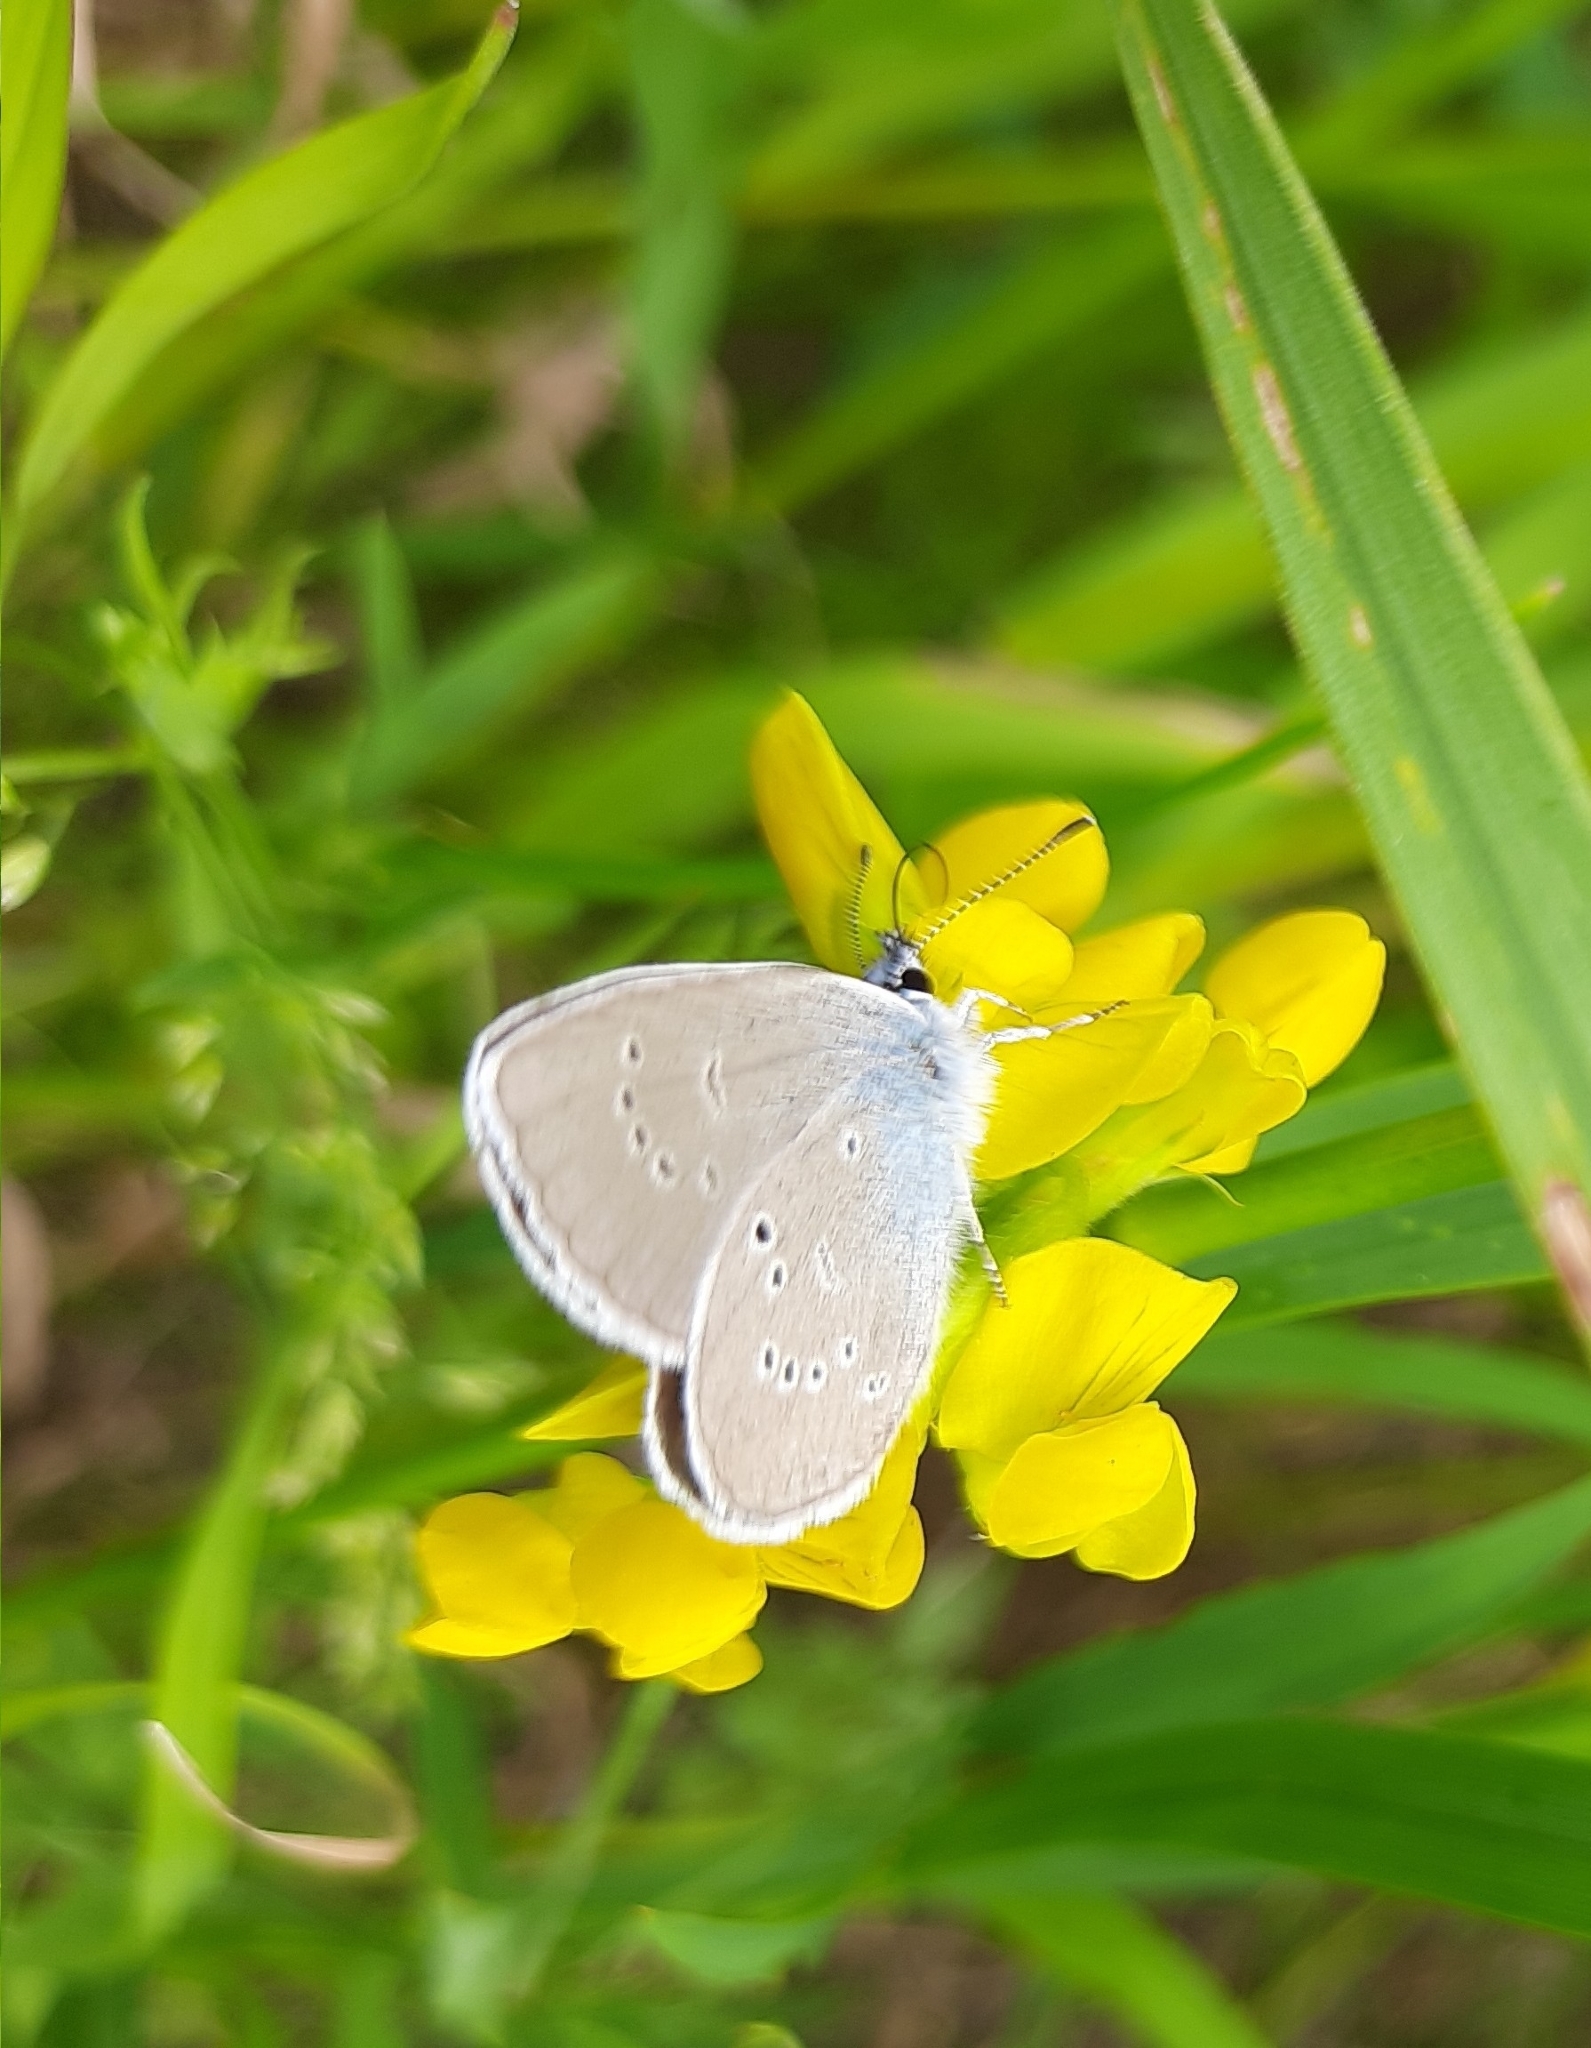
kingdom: Animalia
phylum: Arthropoda
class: Insecta
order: Lepidoptera
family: Lycaenidae
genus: Cyaniris
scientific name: Cyaniris semiargus
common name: Mazarine blue
